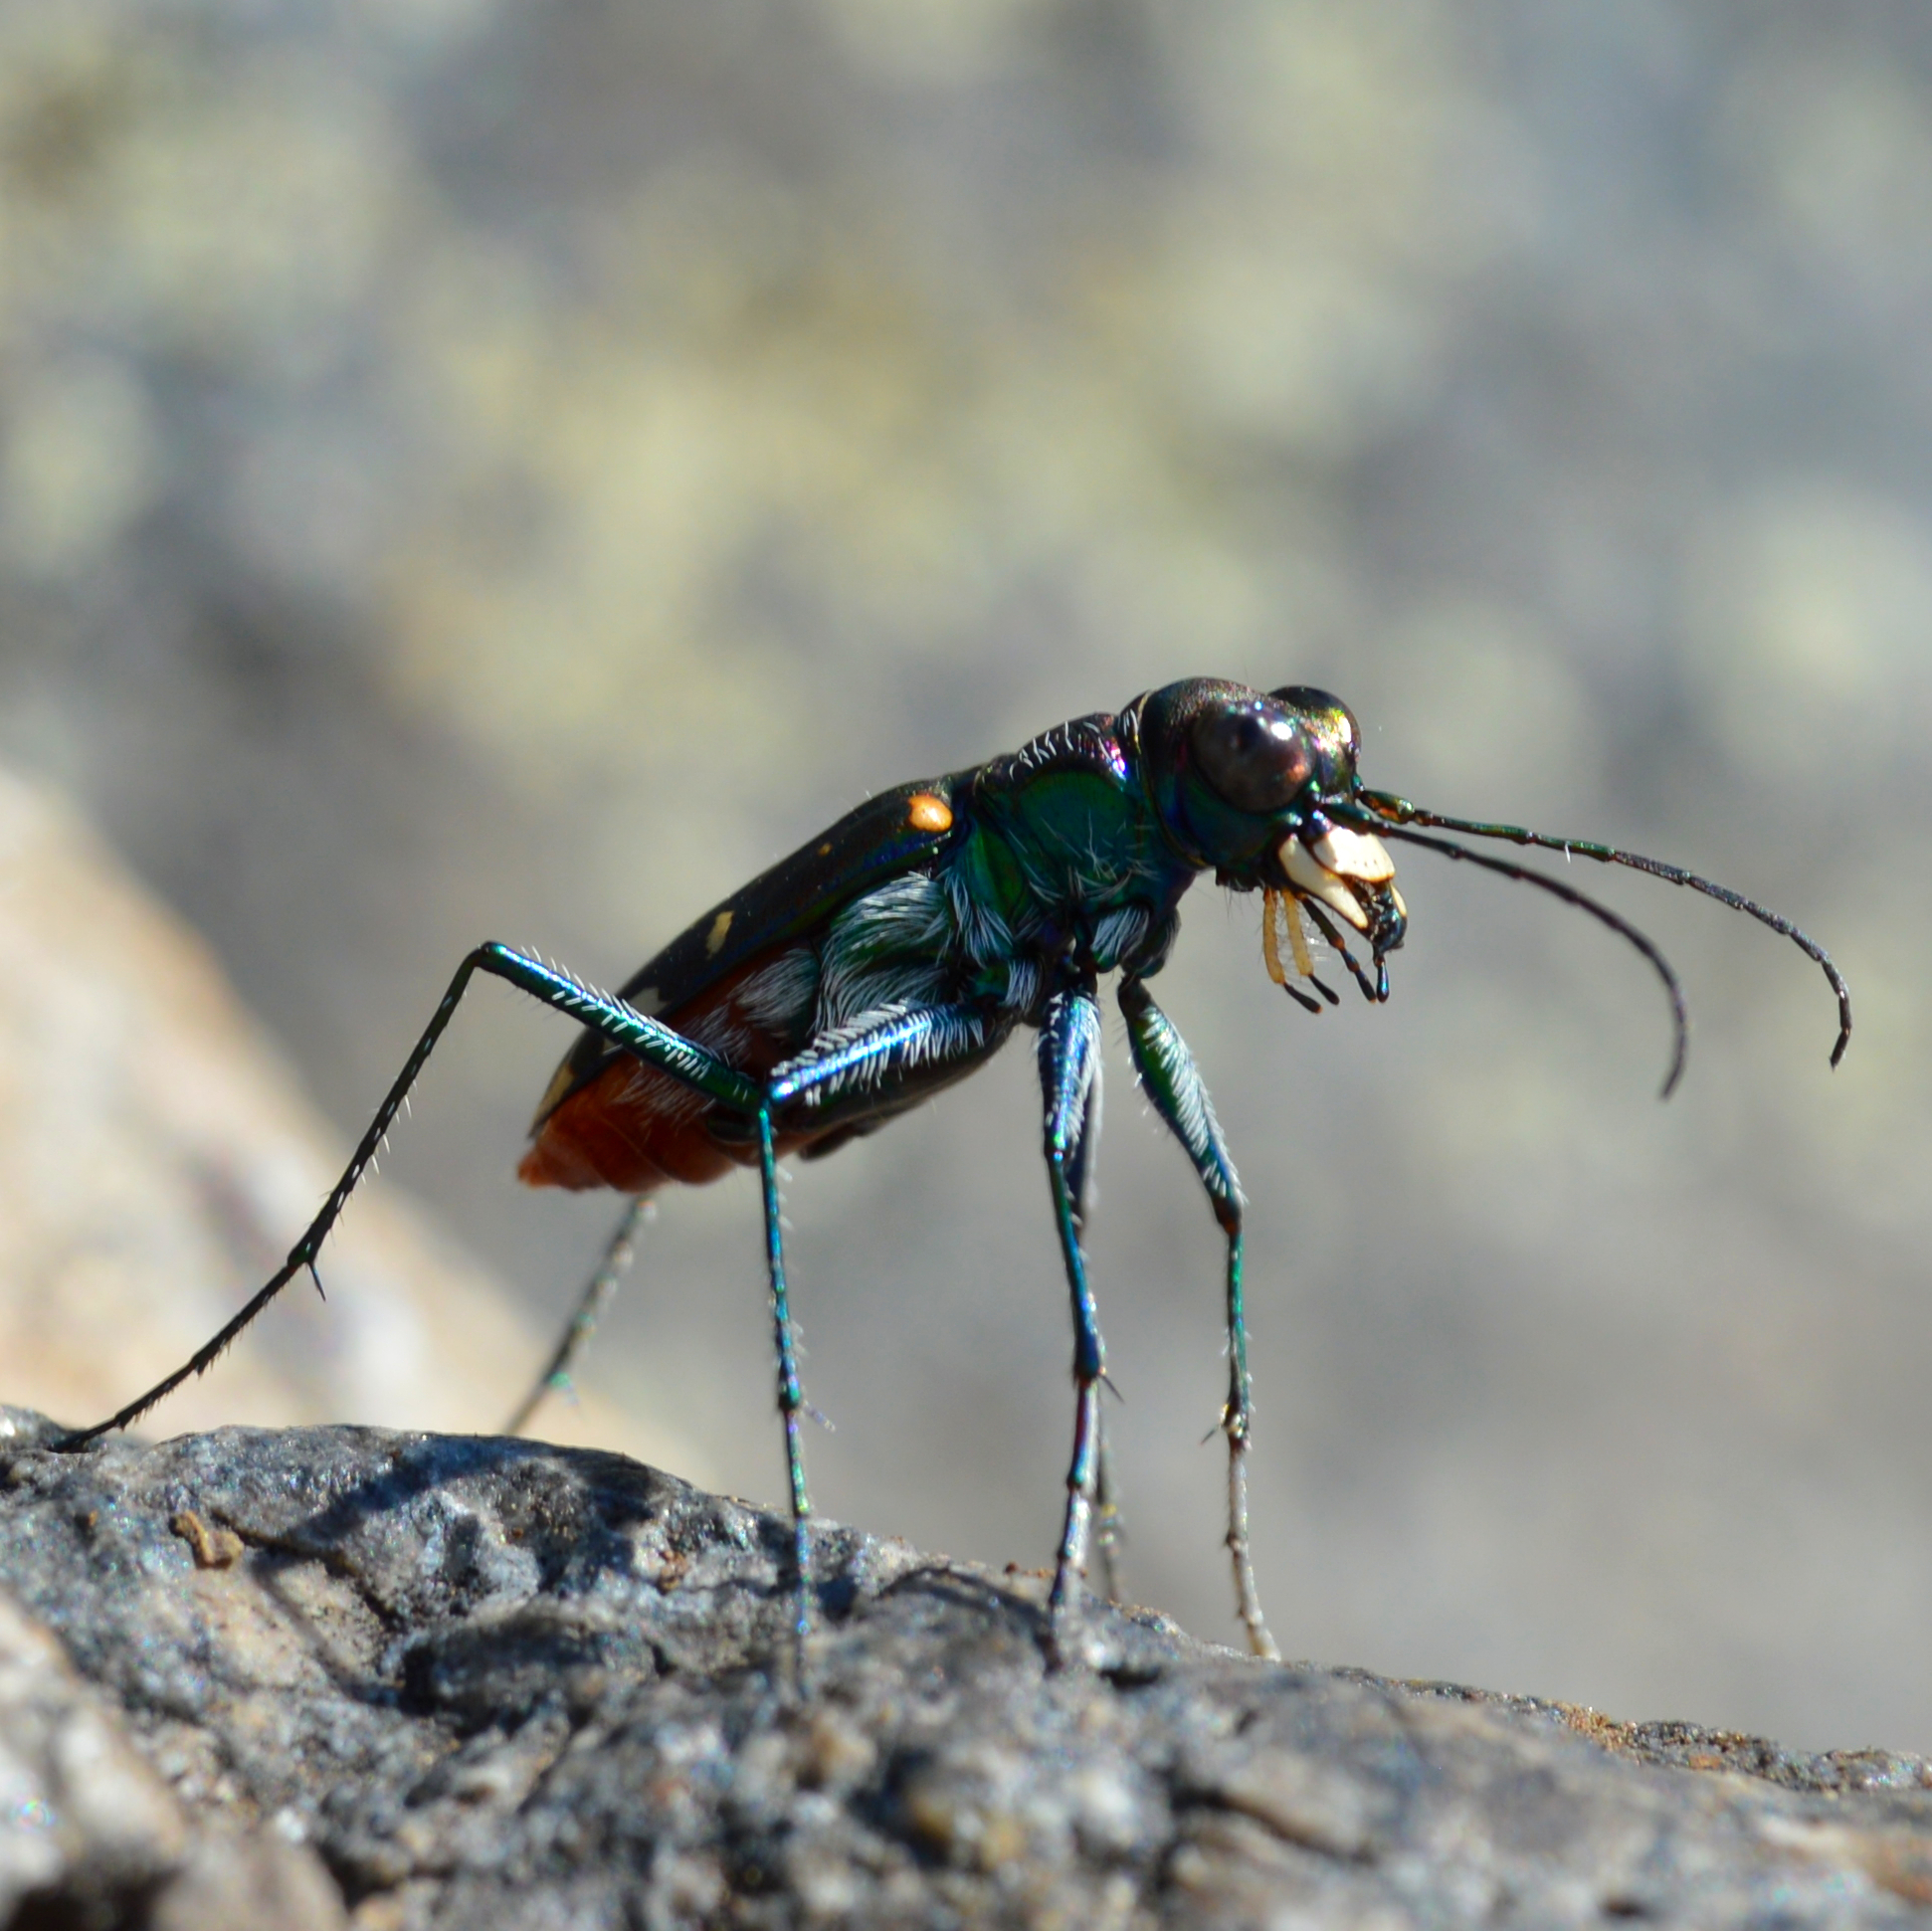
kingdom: Animalia
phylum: Arthropoda
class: Insecta
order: Coleoptera
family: Carabidae
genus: Cicindela
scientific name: Cicindela rufiventris
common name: Eastern red-bellied tiger beetle
